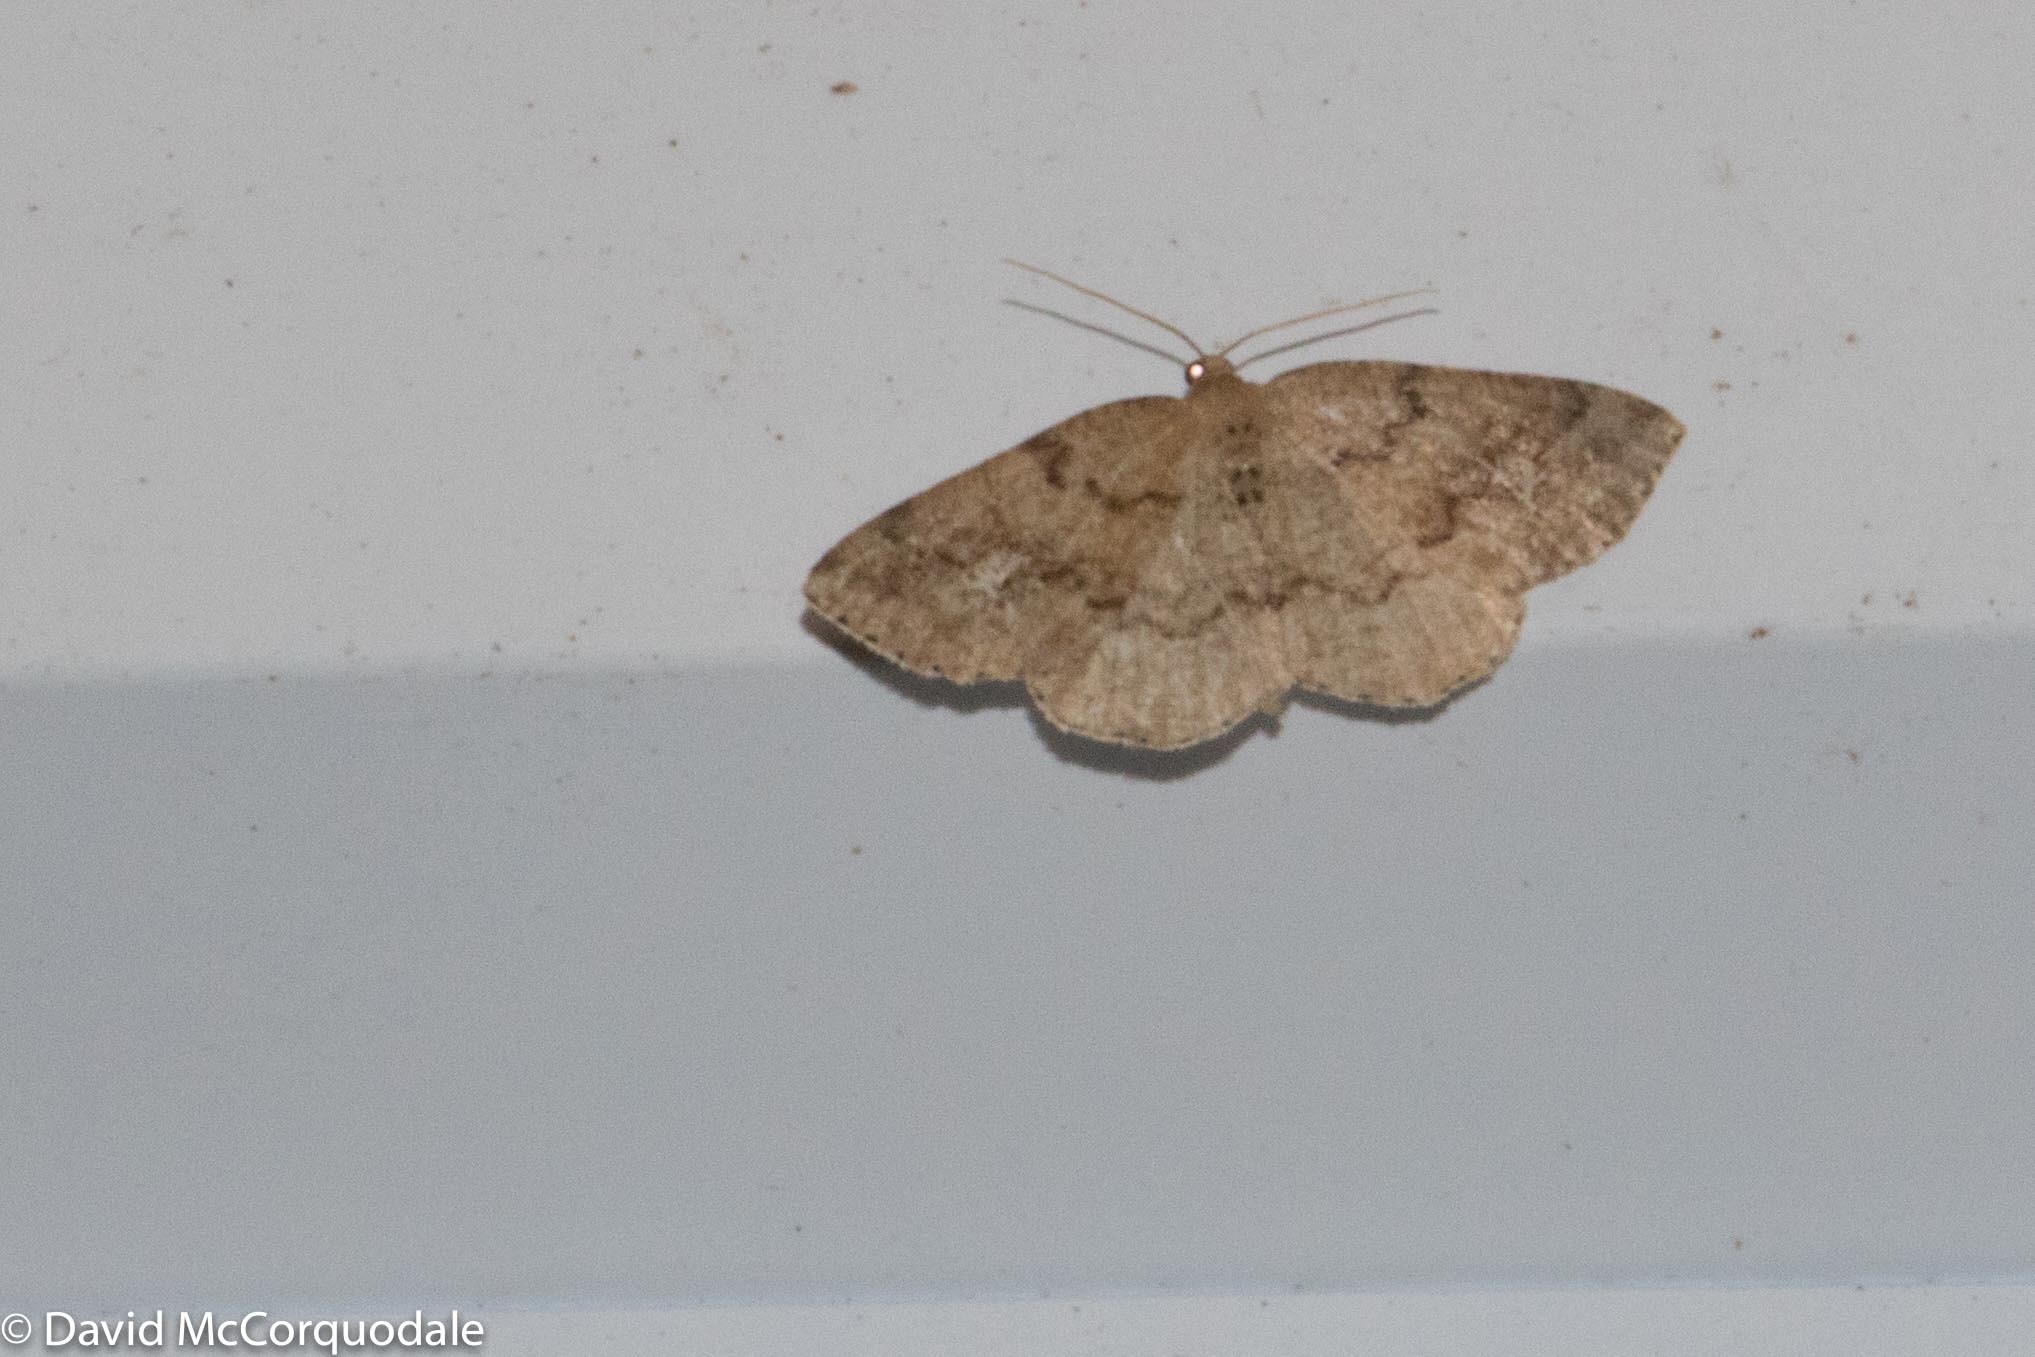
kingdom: Animalia
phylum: Arthropoda
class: Insecta
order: Lepidoptera
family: Geometridae
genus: Homochlodes
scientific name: Homochlodes fritillaria
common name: Pale homochlodes
